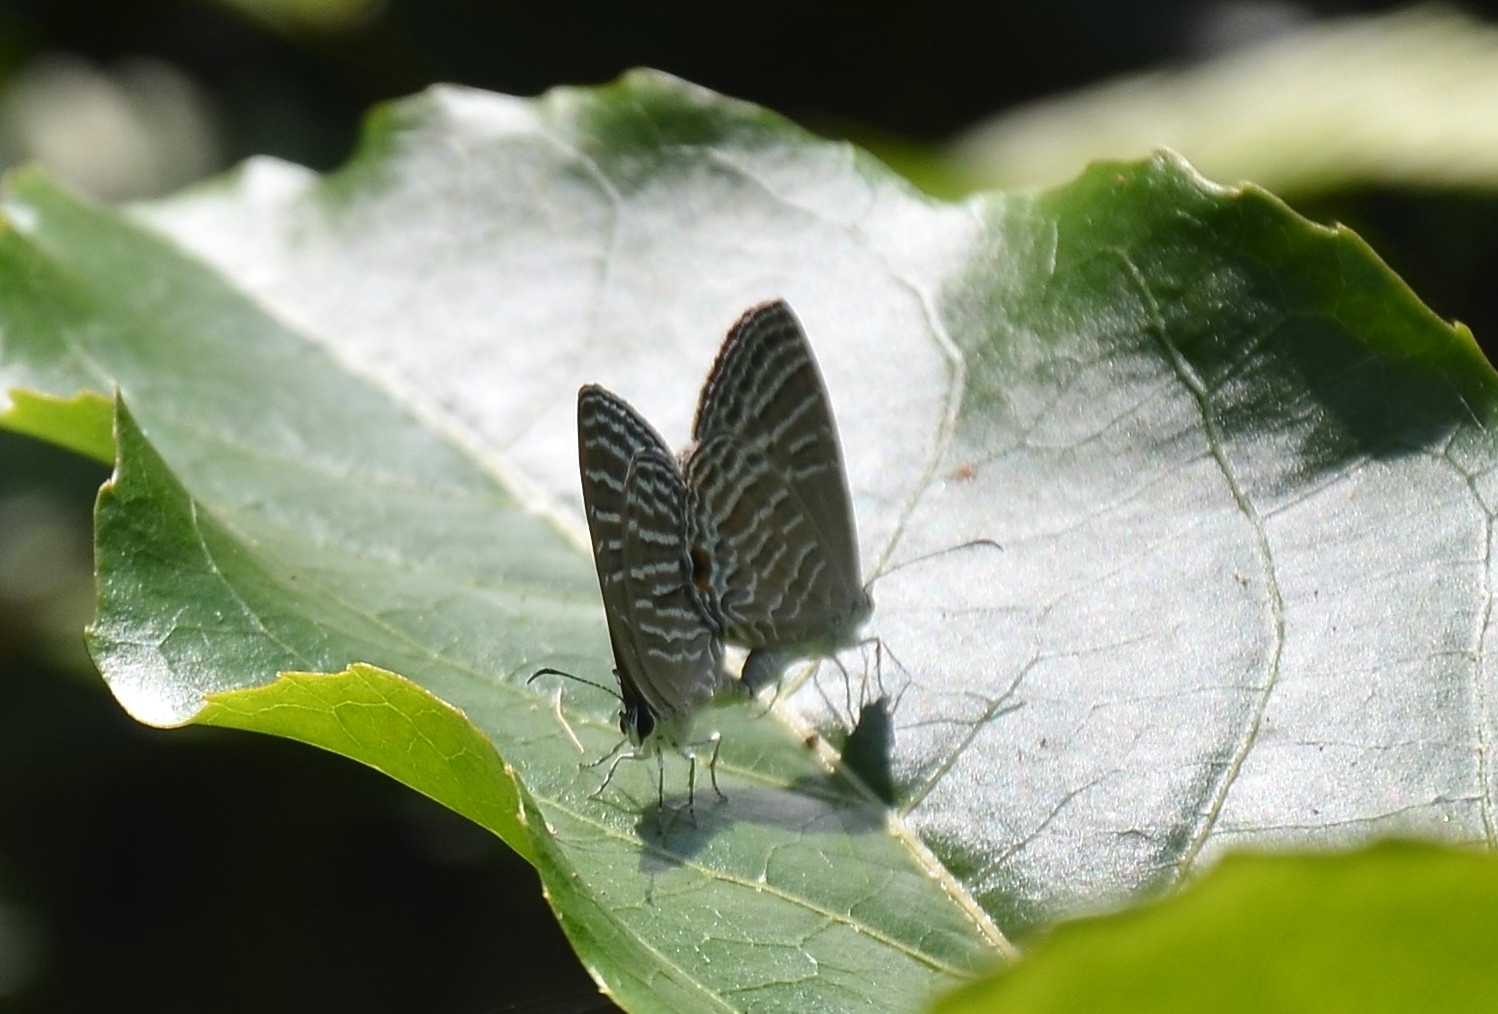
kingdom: Animalia
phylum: Arthropoda
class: Insecta
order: Lepidoptera
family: Lycaenidae
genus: Jamides
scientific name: Jamides celeno
